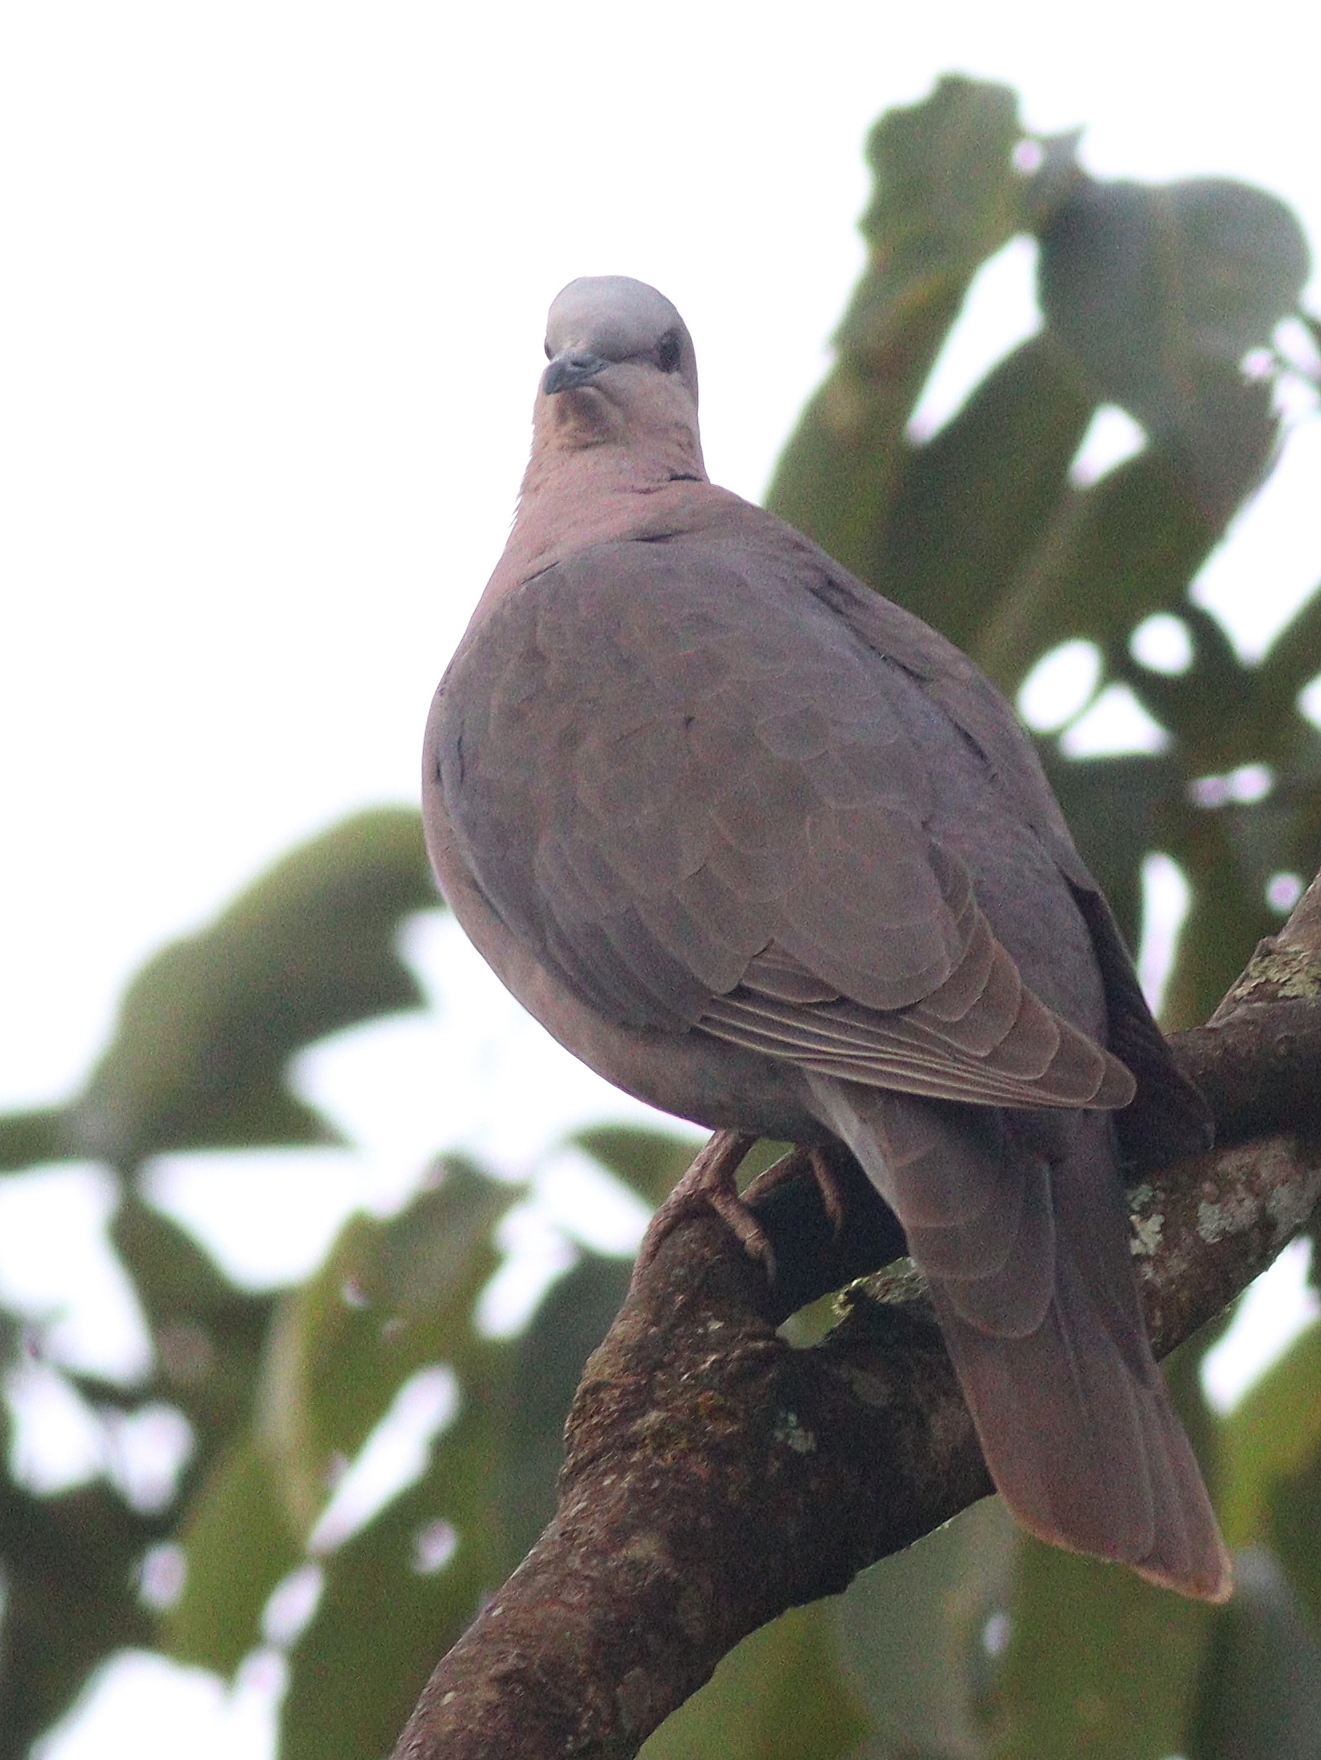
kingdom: Animalia
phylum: Chordata
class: Aves
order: Columbiformes
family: Columbidae
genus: Streptopelia
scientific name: Streptopelia semitorquata
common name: Red-eyed dove
